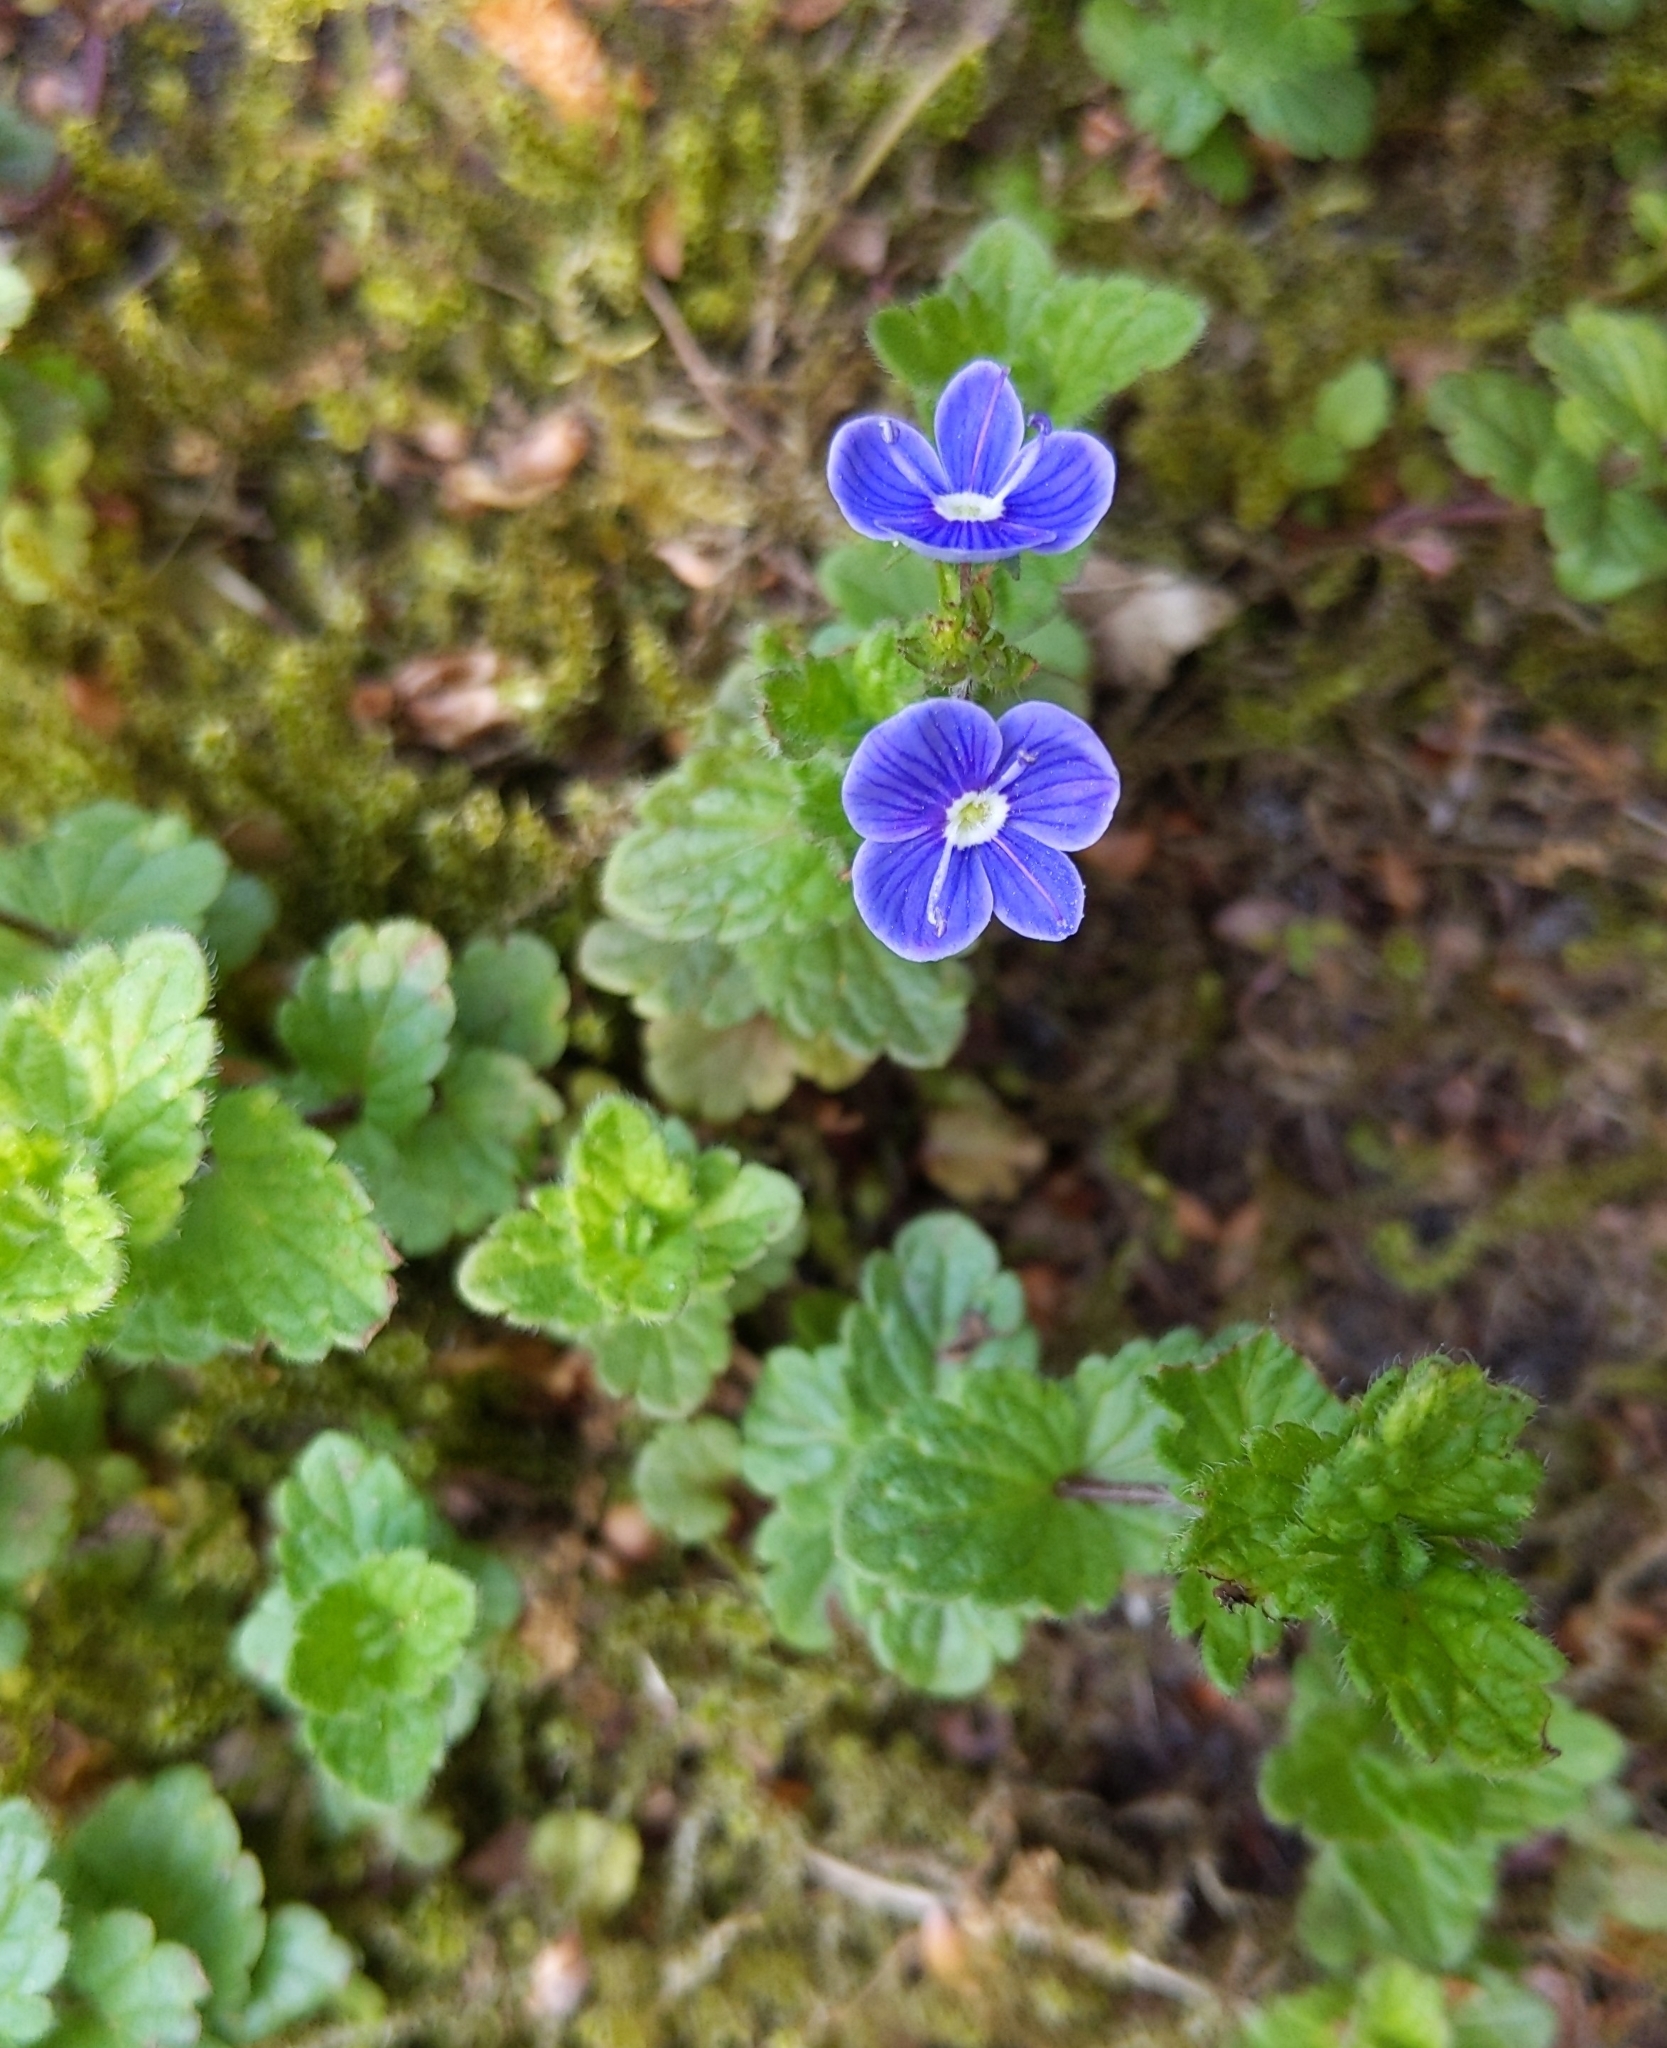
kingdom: Plantae
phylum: Tracheophyta
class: Magnoliopsida
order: Lamiales
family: Plantaginaceae
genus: Veronica
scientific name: Veronica chamaedrys
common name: Germander speedwell
